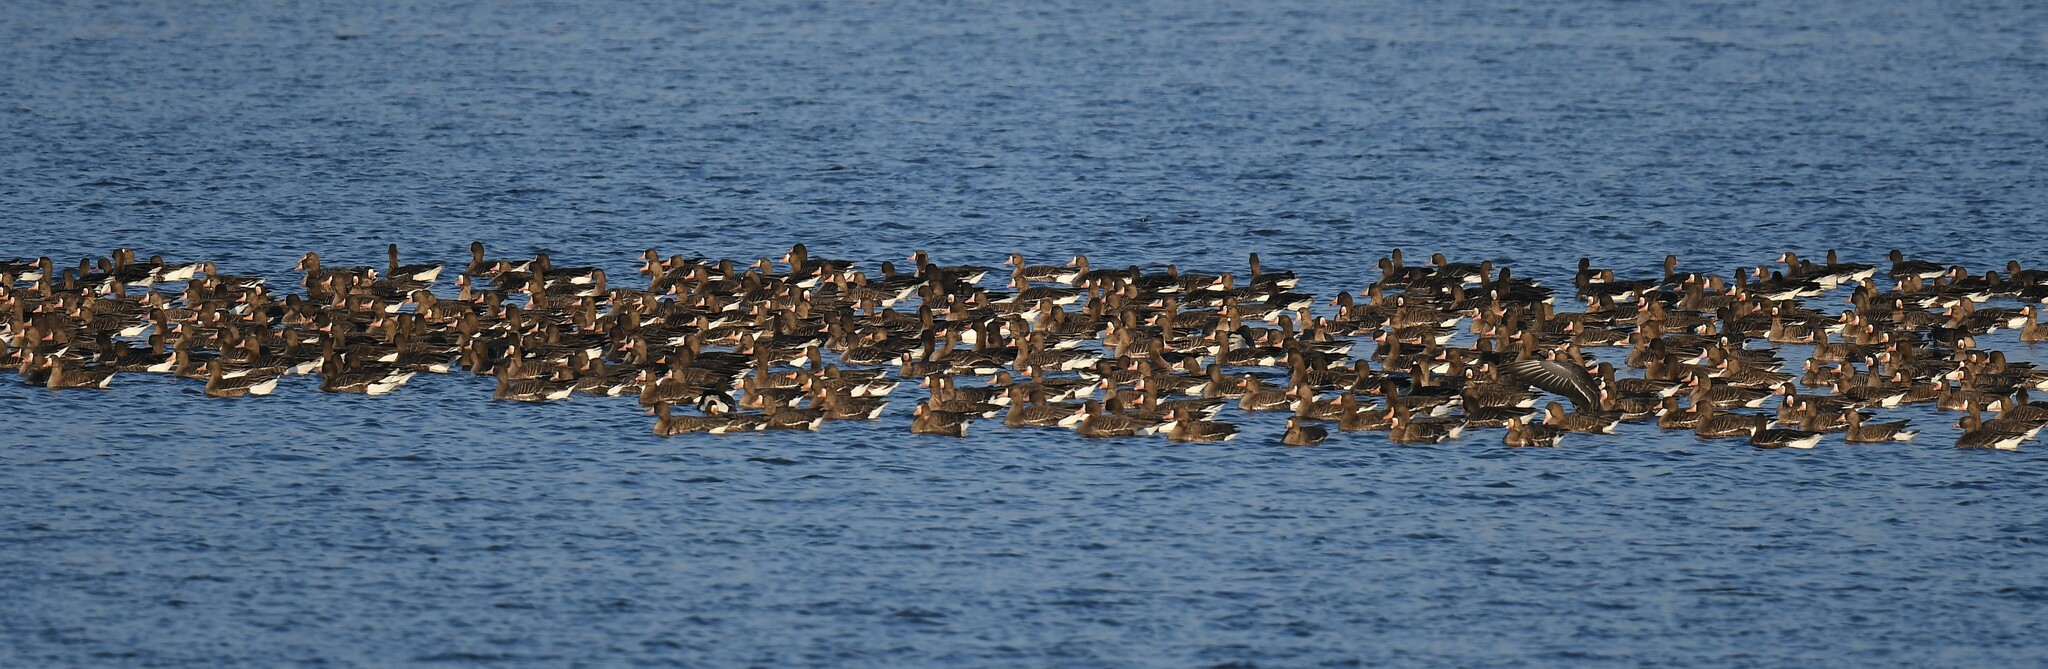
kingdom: Animalia
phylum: Chordata
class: Aves
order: Anseriformes
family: Anatidae
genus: Anser
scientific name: Anser albifrons
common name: Greater white-fronted goose
